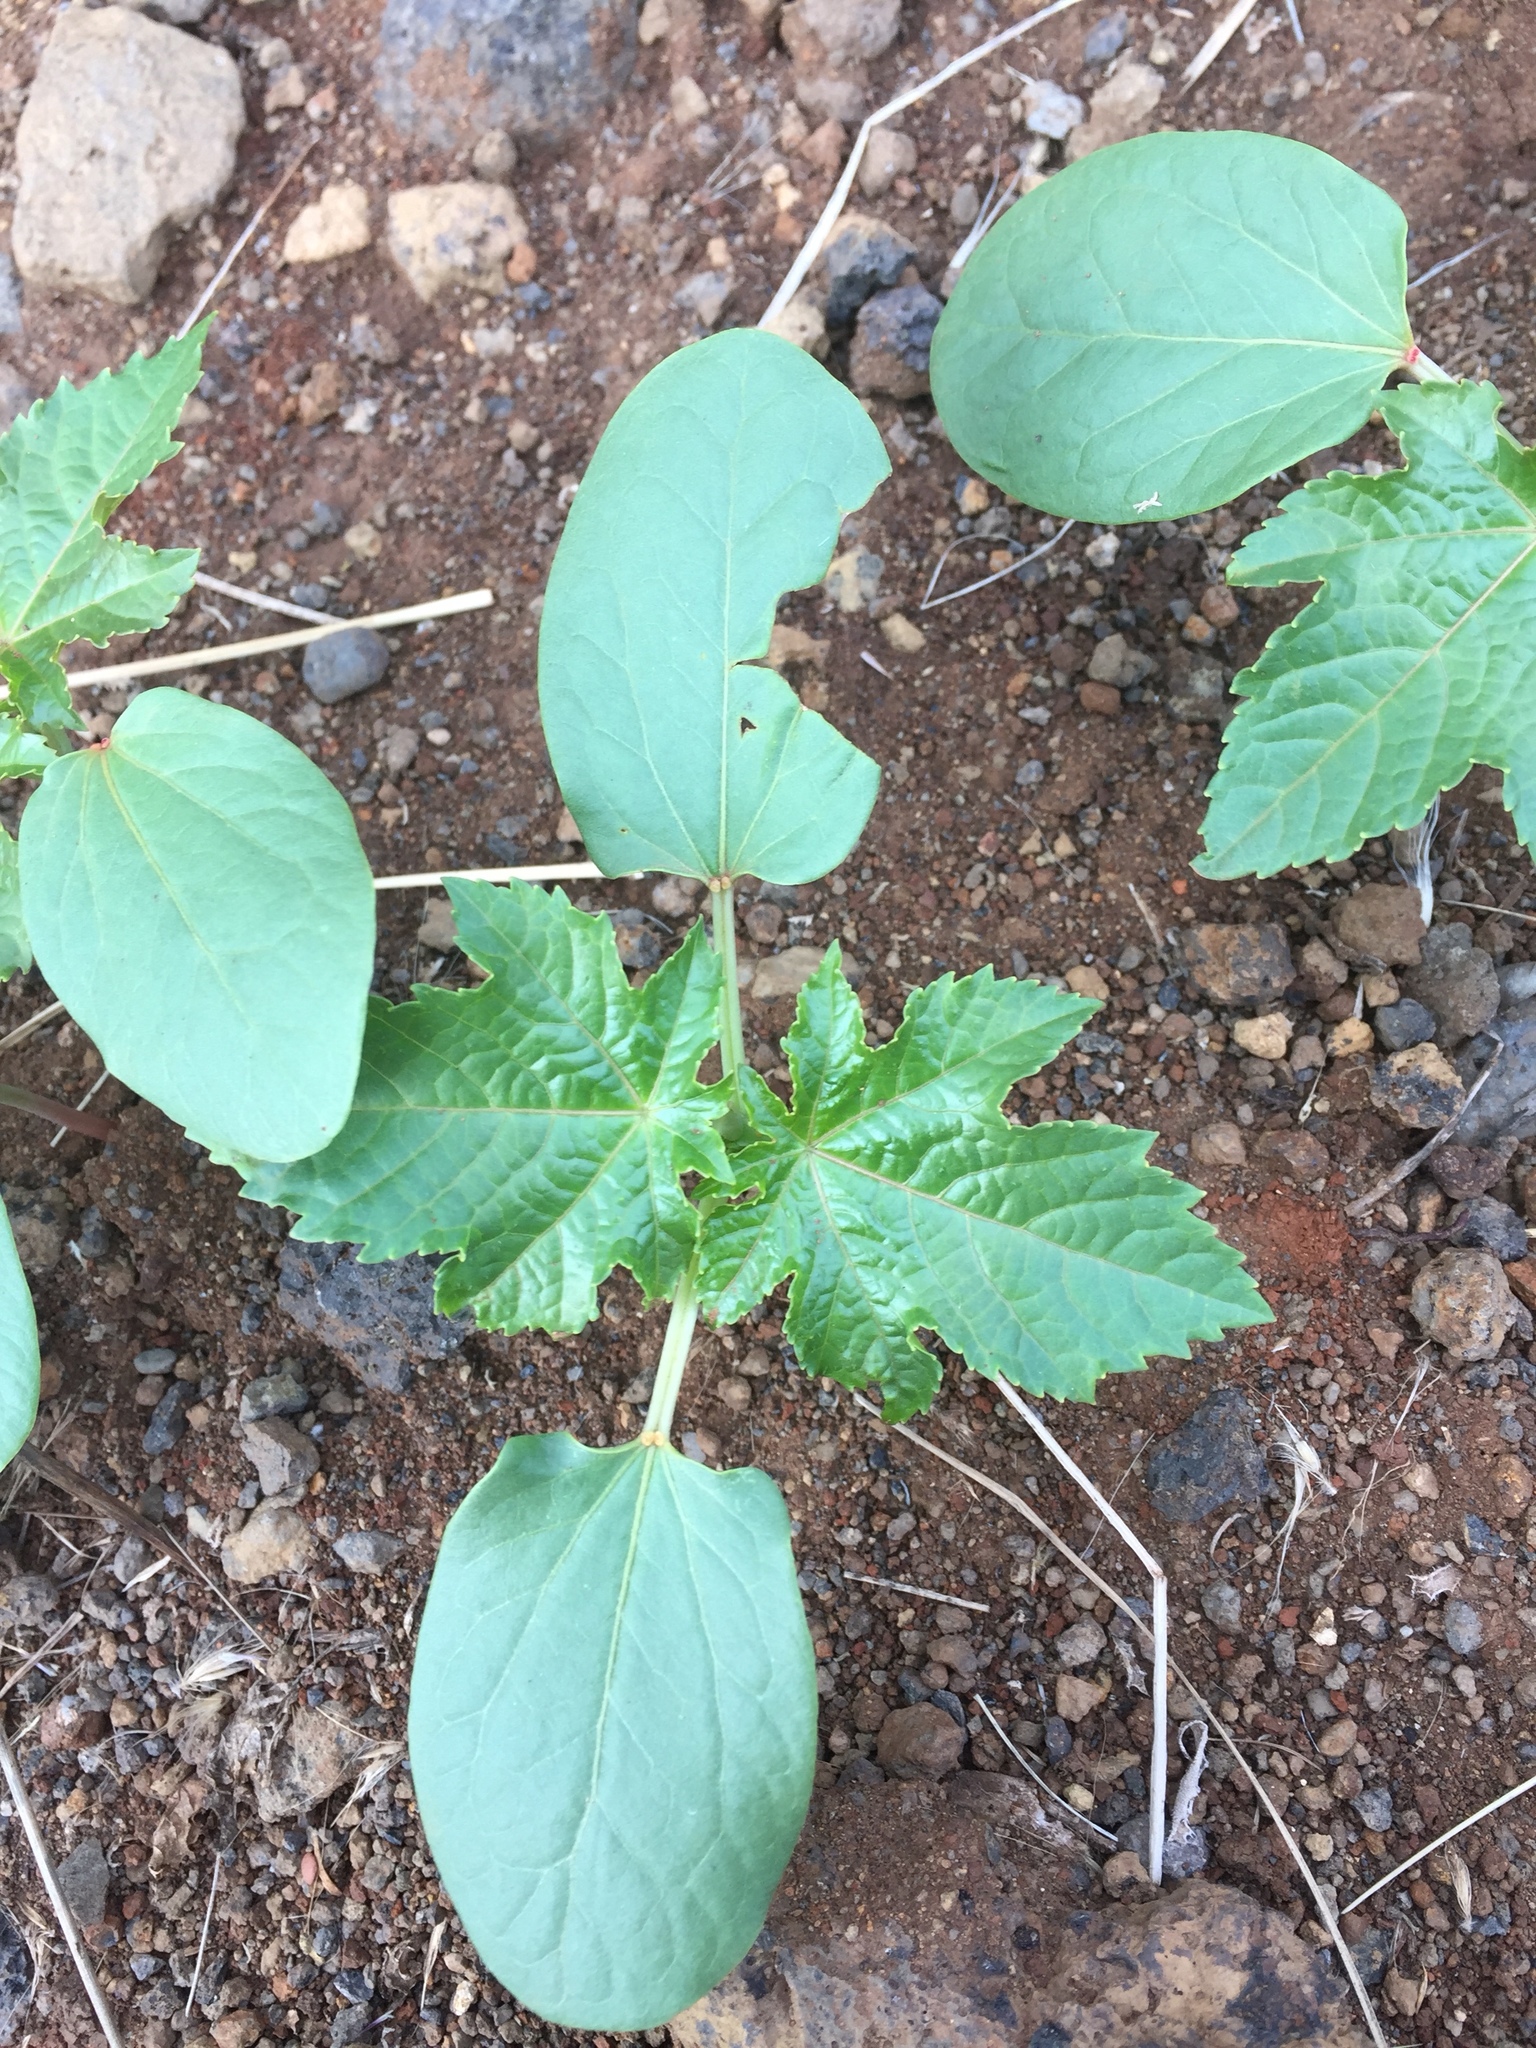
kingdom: Plantae
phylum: Tracheophyta
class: Magnoliopsida
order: Malpighiales
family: Euphorbiaceae
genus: Ricinus
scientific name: Ricinus communis
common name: Castor-oil-plant
